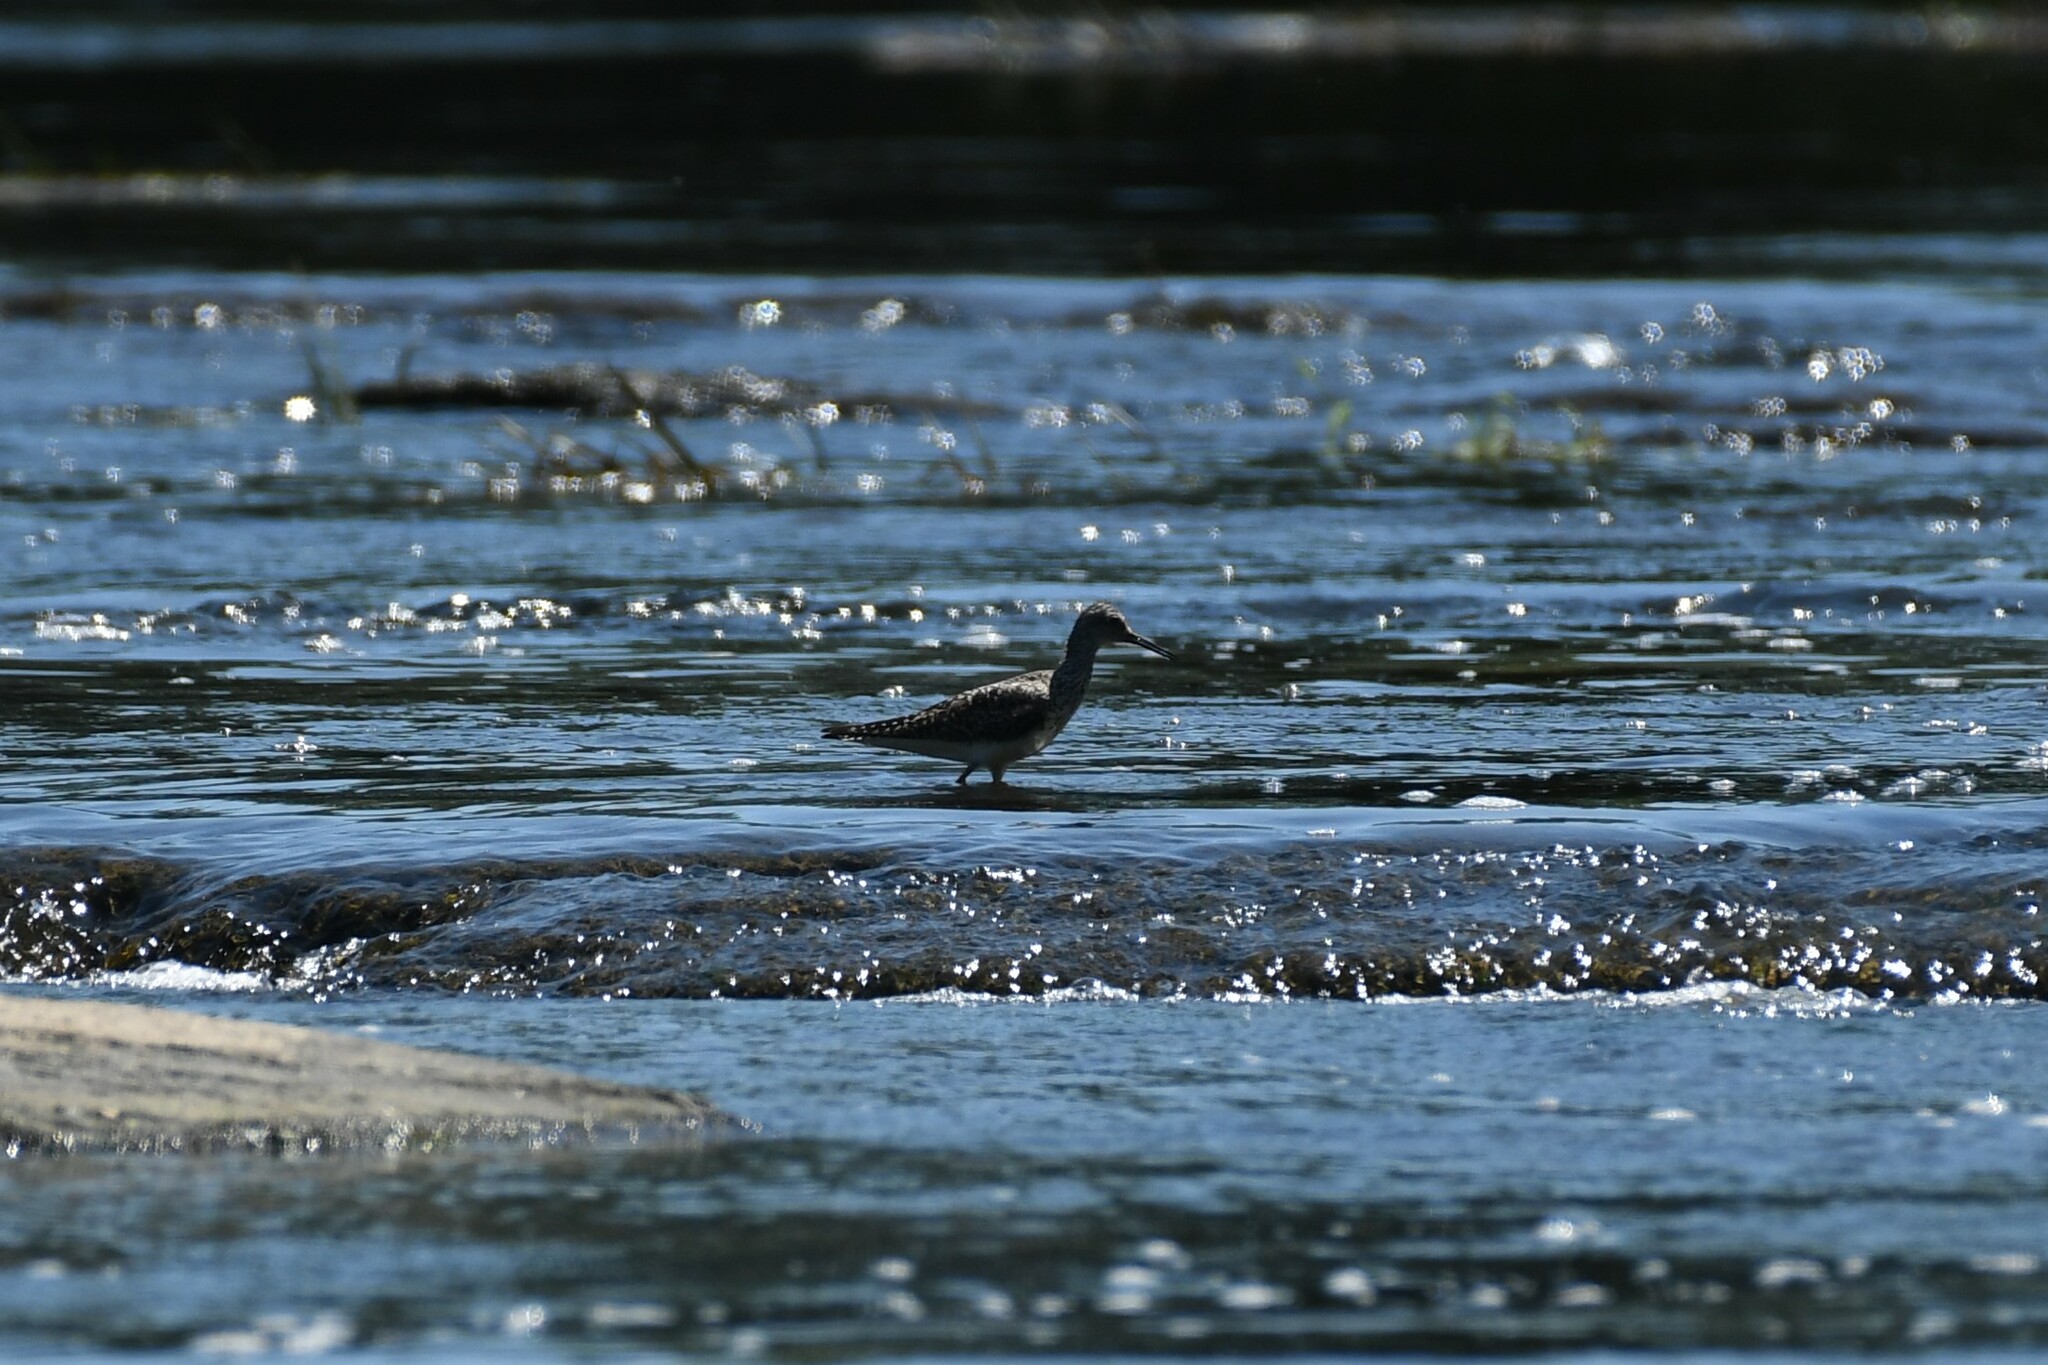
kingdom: Animalia
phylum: Chordata
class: Aves
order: Charadriiformes
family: Scolopacidae
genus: Tringa
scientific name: Tringa flavipes
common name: Lesser yellowlegs
